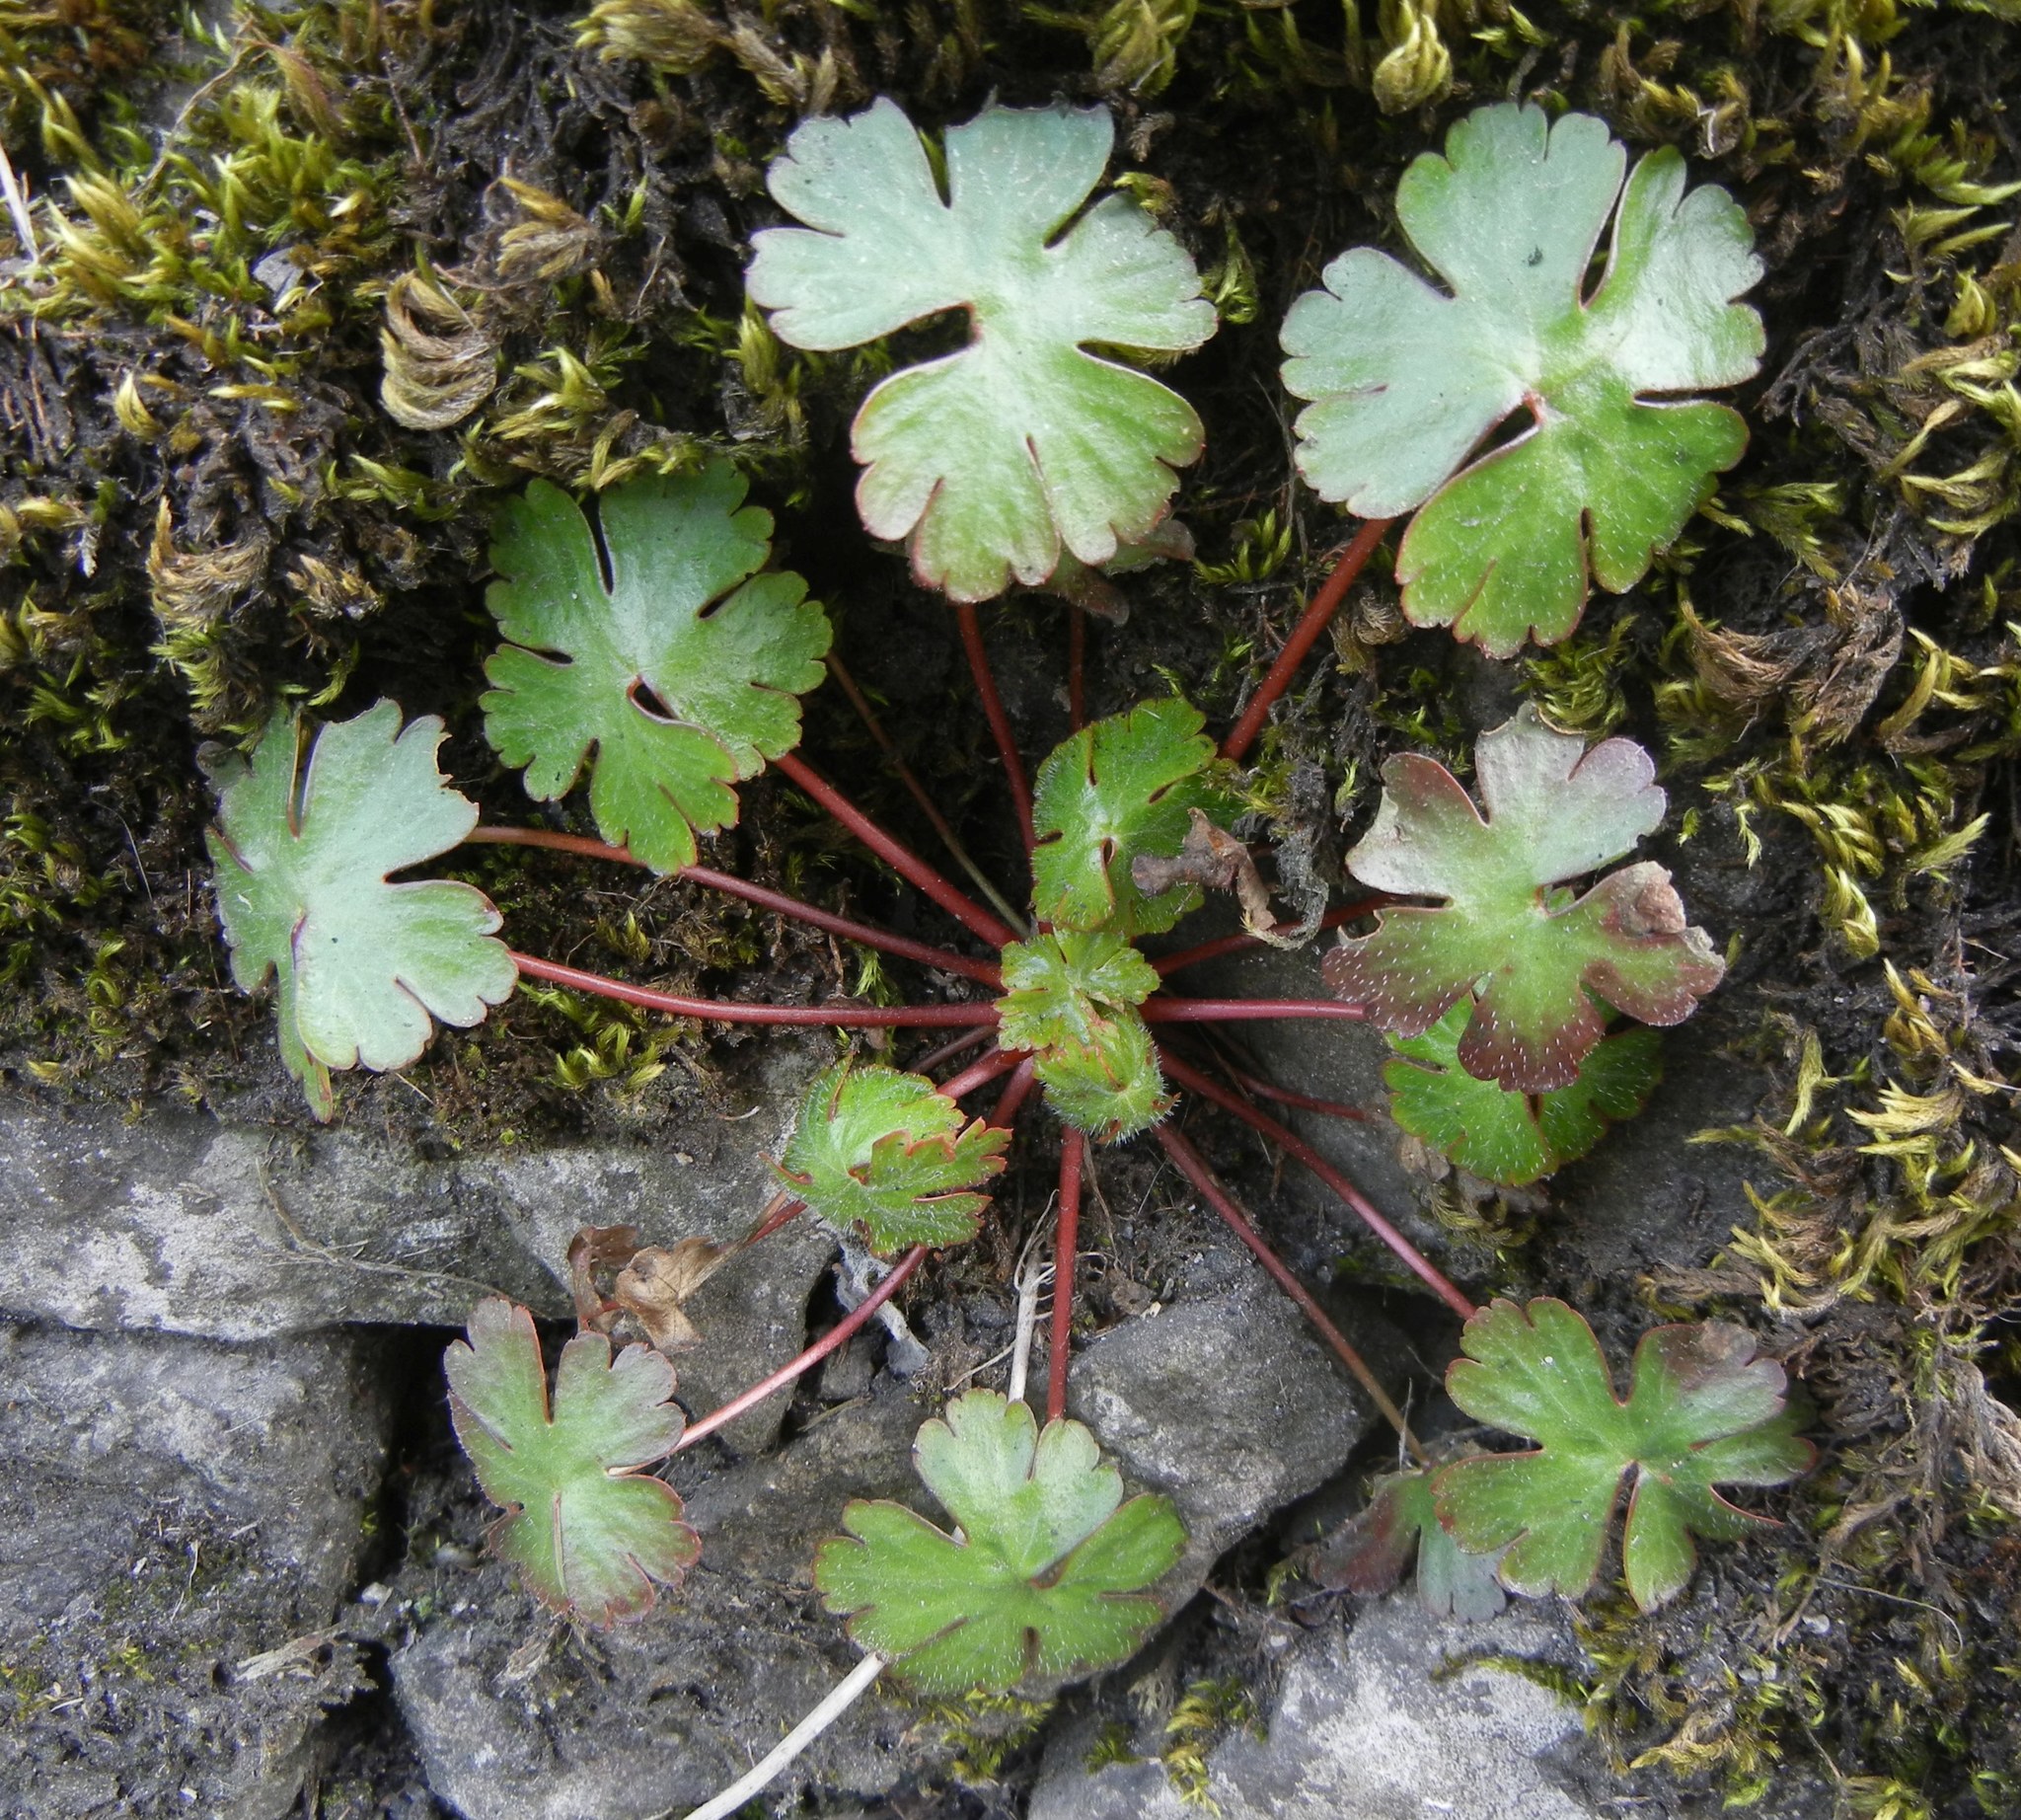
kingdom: Plantae
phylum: Tracheophyta
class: Magnoliopsida
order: Geraniales
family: Geraniaceae
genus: Geranium
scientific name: Geranium lucidum
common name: Shining crane's-bill
